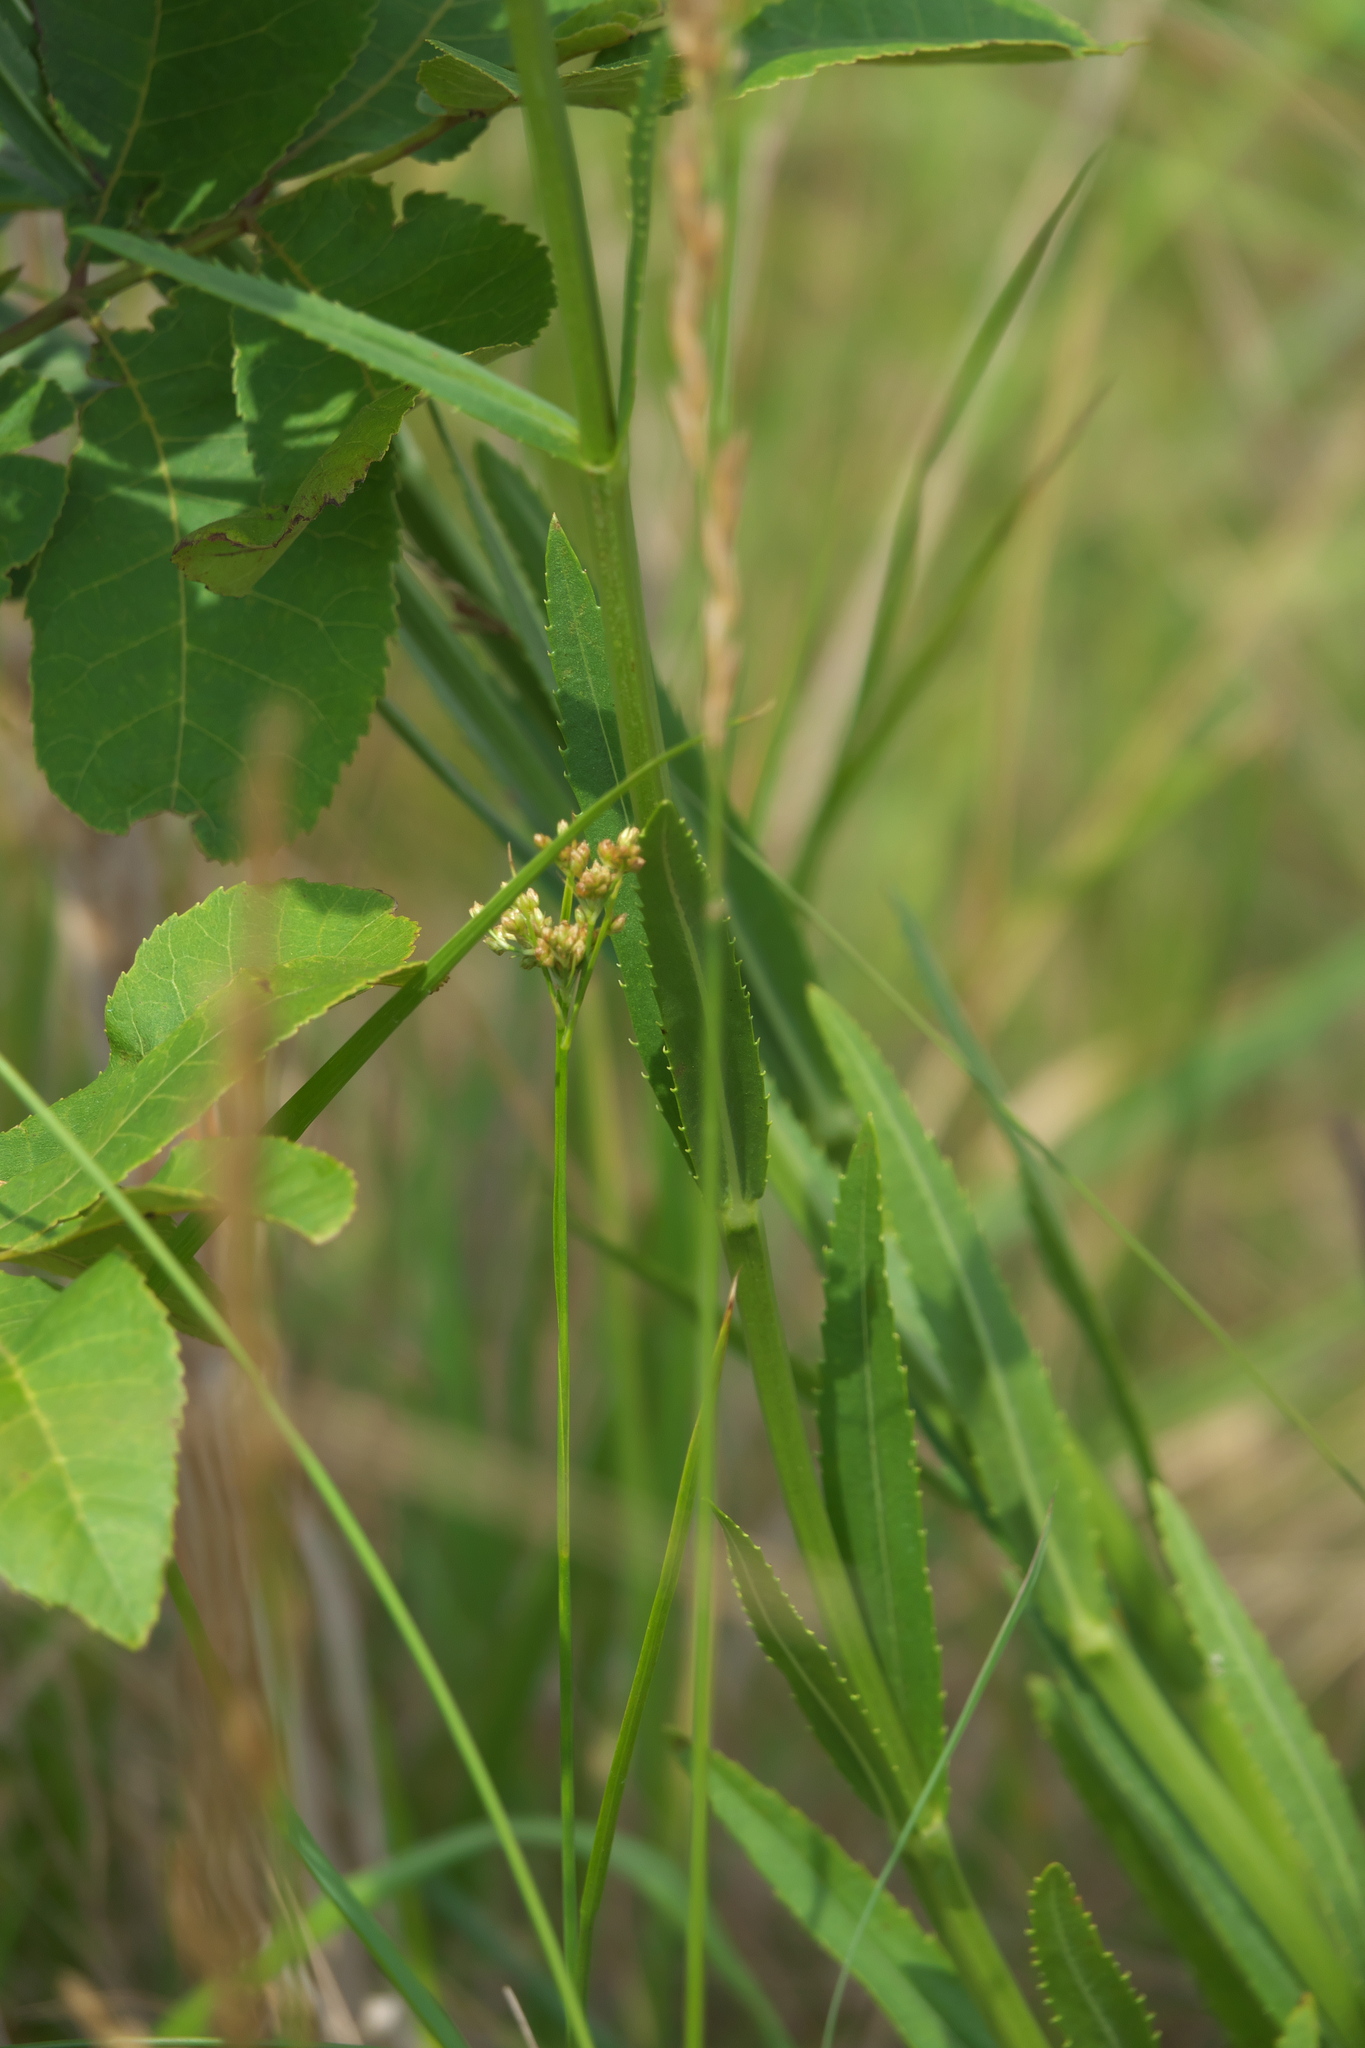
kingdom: Plantae
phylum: Tracheophyta
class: Magnoliopsida
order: Lamiales
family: Lamiaceae
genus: Physostegia
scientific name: Physostegia angustifolia
